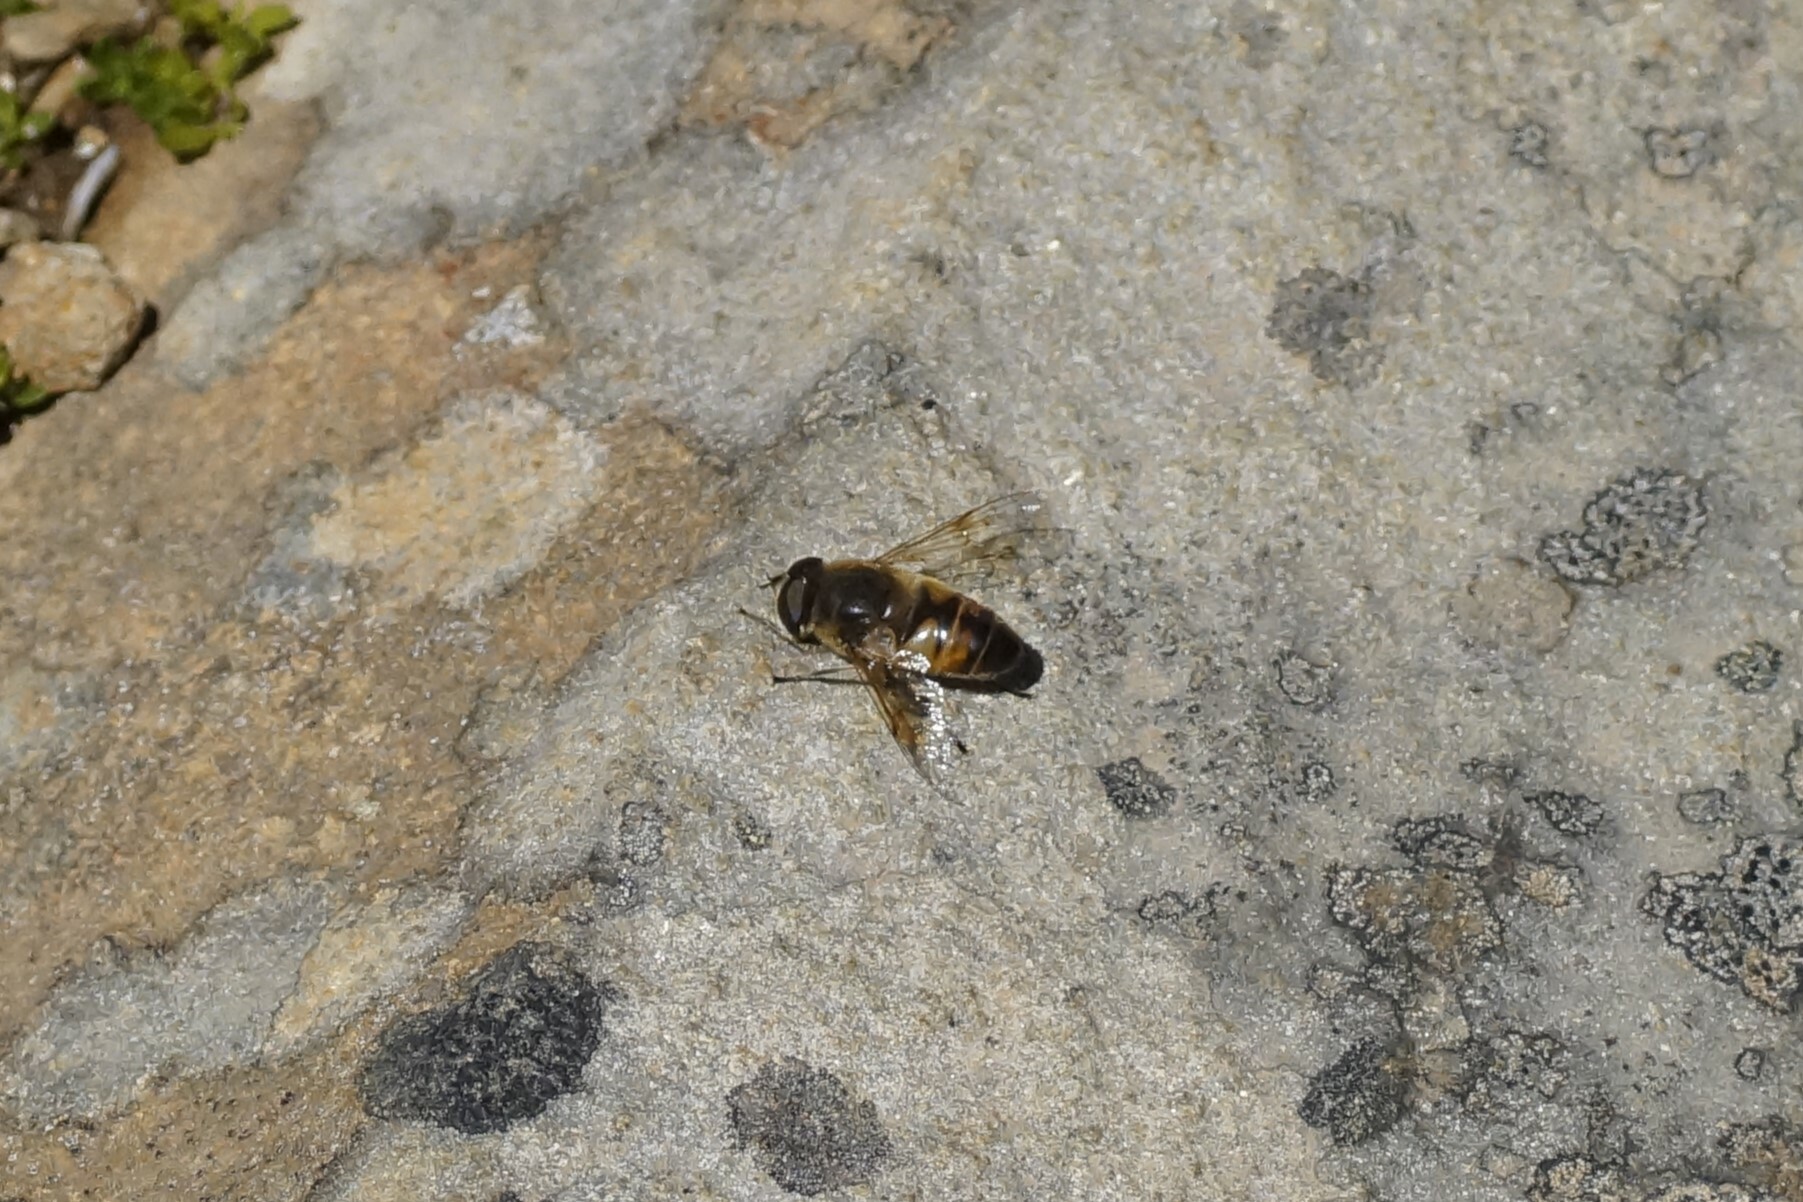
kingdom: Animalia
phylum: Arthropoda
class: Insecta
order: Diptera
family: Syrphidae
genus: Eristalis
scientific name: Eristalis tenax
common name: Drone fly
